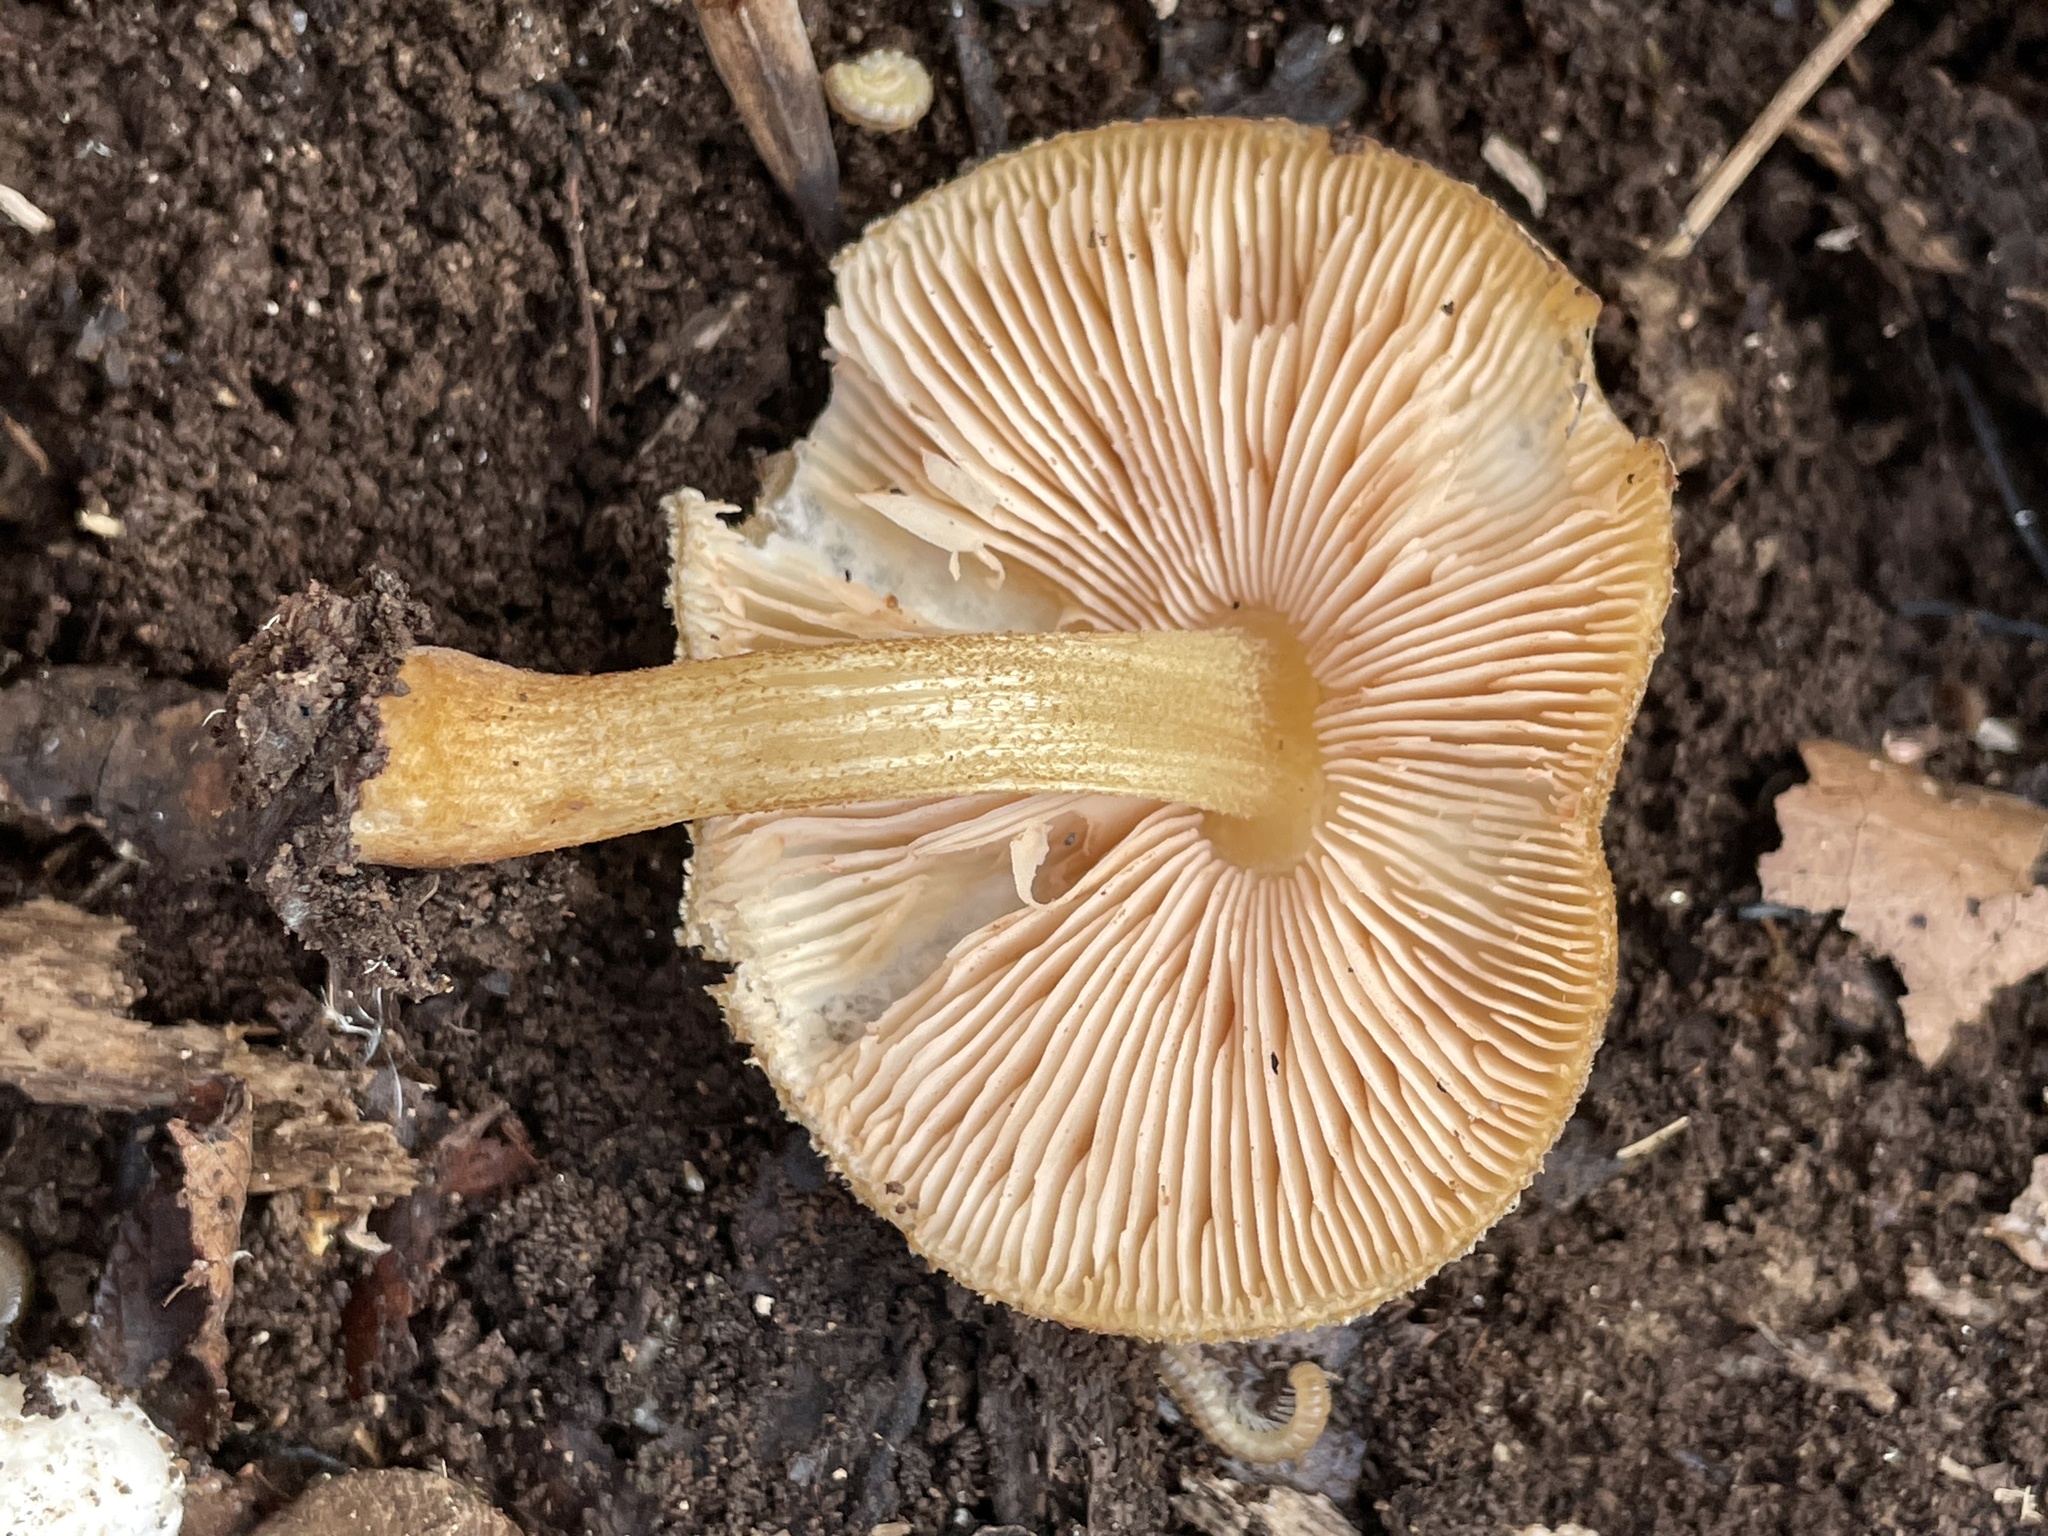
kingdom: Fungi
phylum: Basidiomycota
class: Agaricomycetes
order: Agaricales
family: Pluteaceae
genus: Pluteus
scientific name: Pluteus granularis
